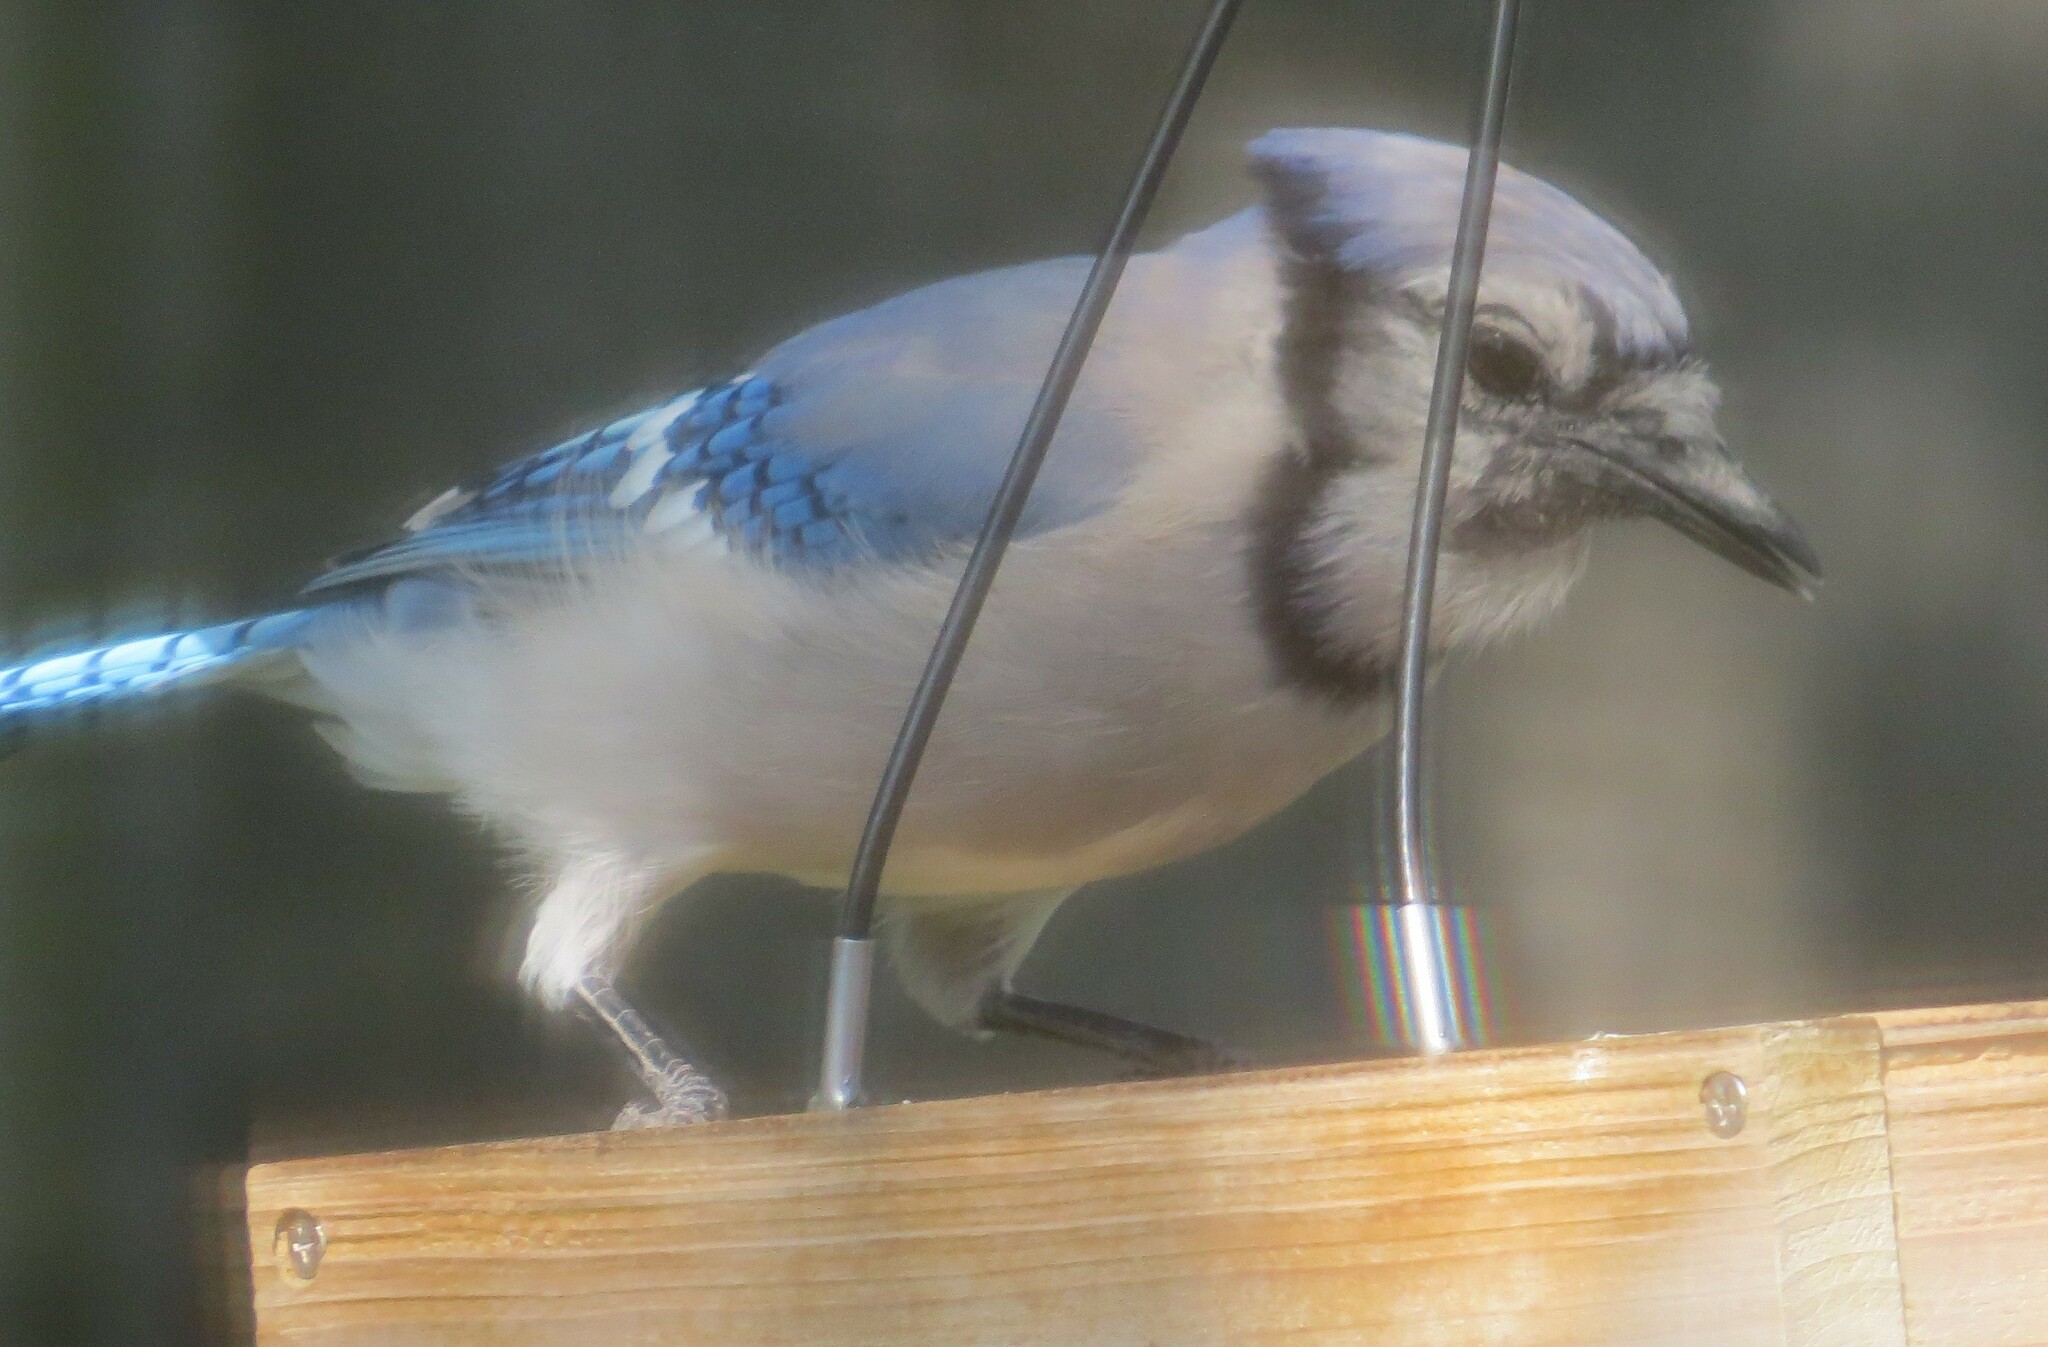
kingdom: Animalia
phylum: Chordata
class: Aves
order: Passeriformes
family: Corvidae
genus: Cyanocitta
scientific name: Cyanocitta cristata
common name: Blue jay
